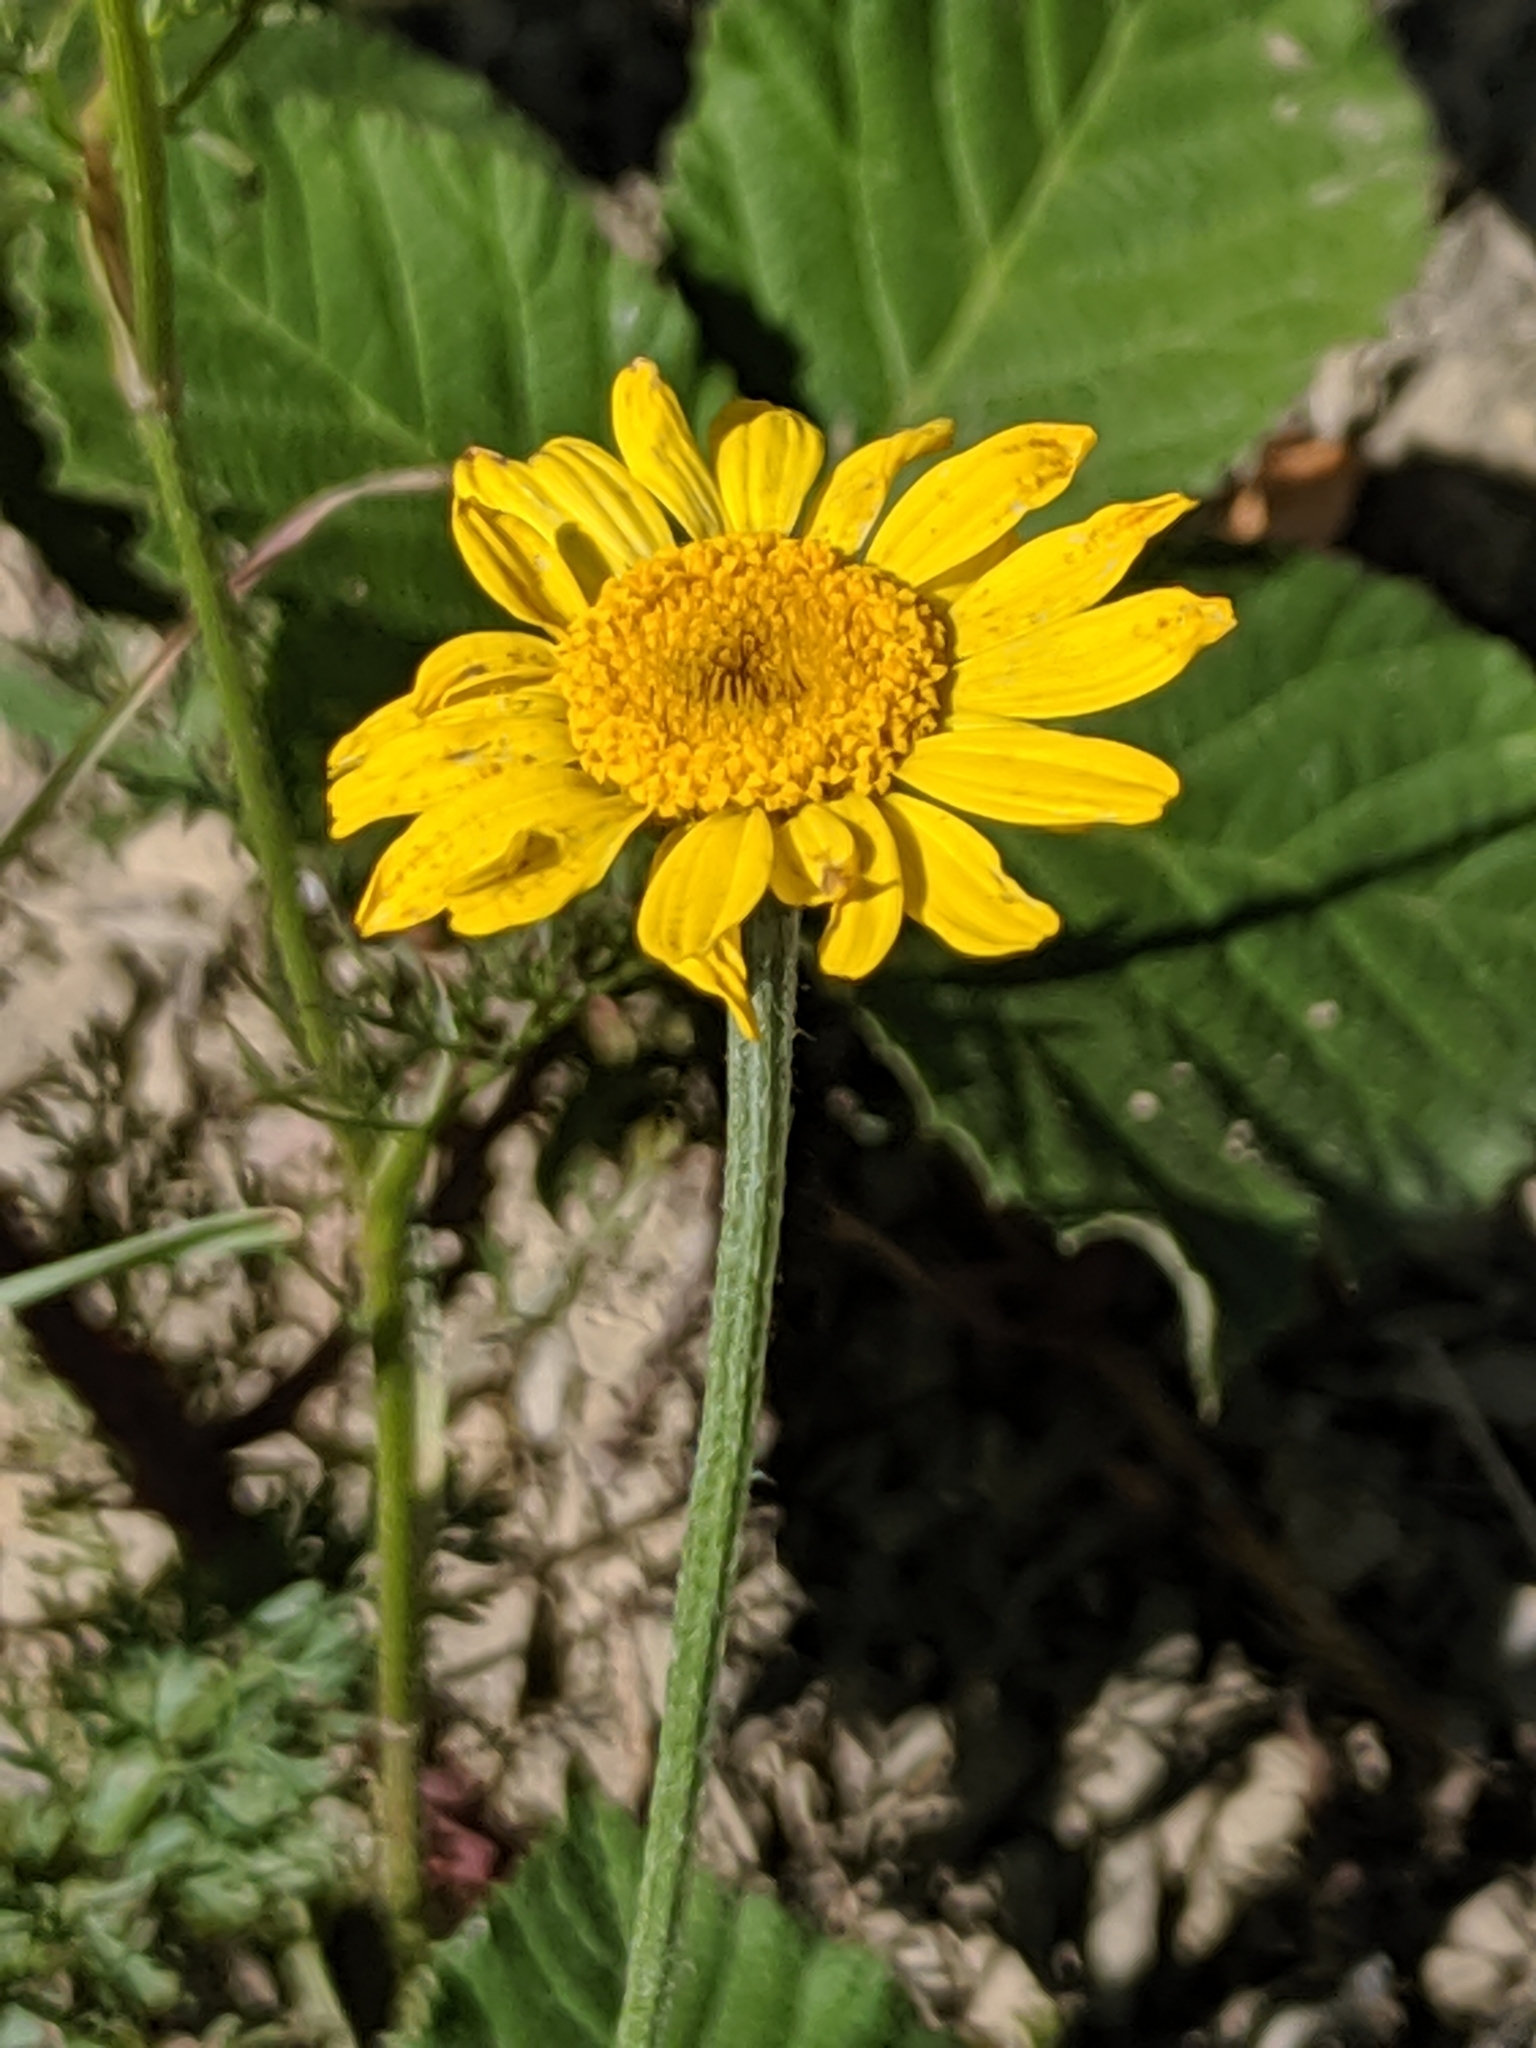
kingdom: Plantae
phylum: Tracheophyta
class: Magnoliopsida
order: Asterales
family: Asteraceae
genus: Cota
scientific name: Cota tinctoria
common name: Golden chamomile
